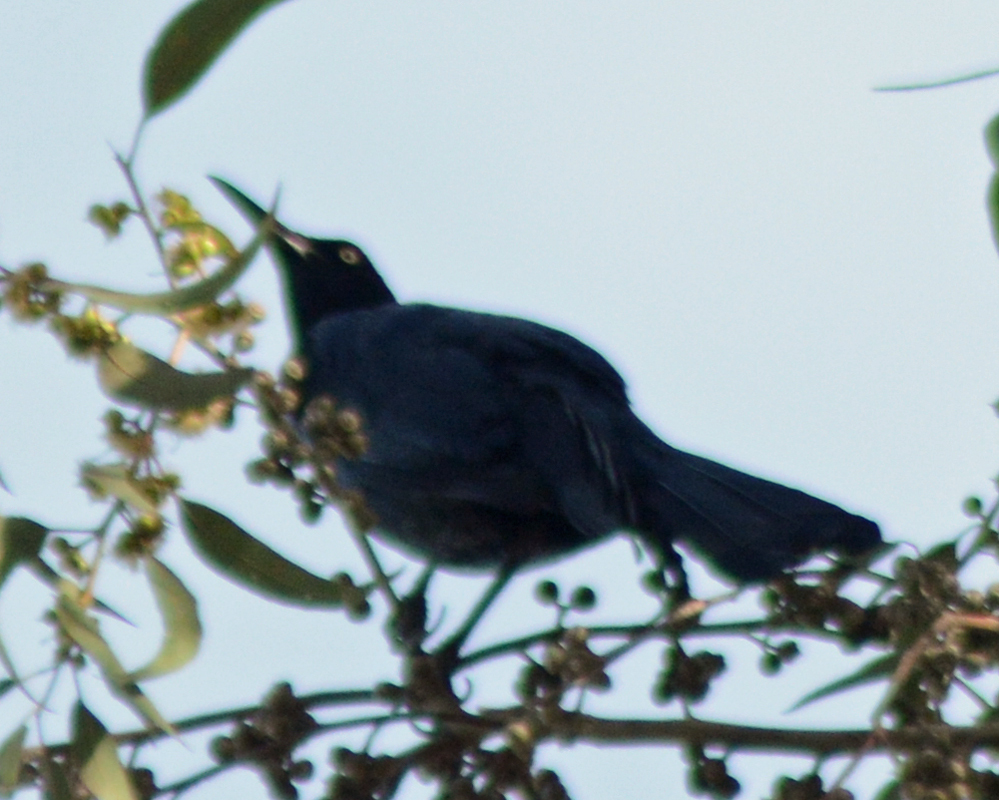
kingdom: Animalia
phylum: Chordata
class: Aves
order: Passeriformes
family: Icteridae
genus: Quiscalus
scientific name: Quiscalus mexicanus
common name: Great-tailed grackle
